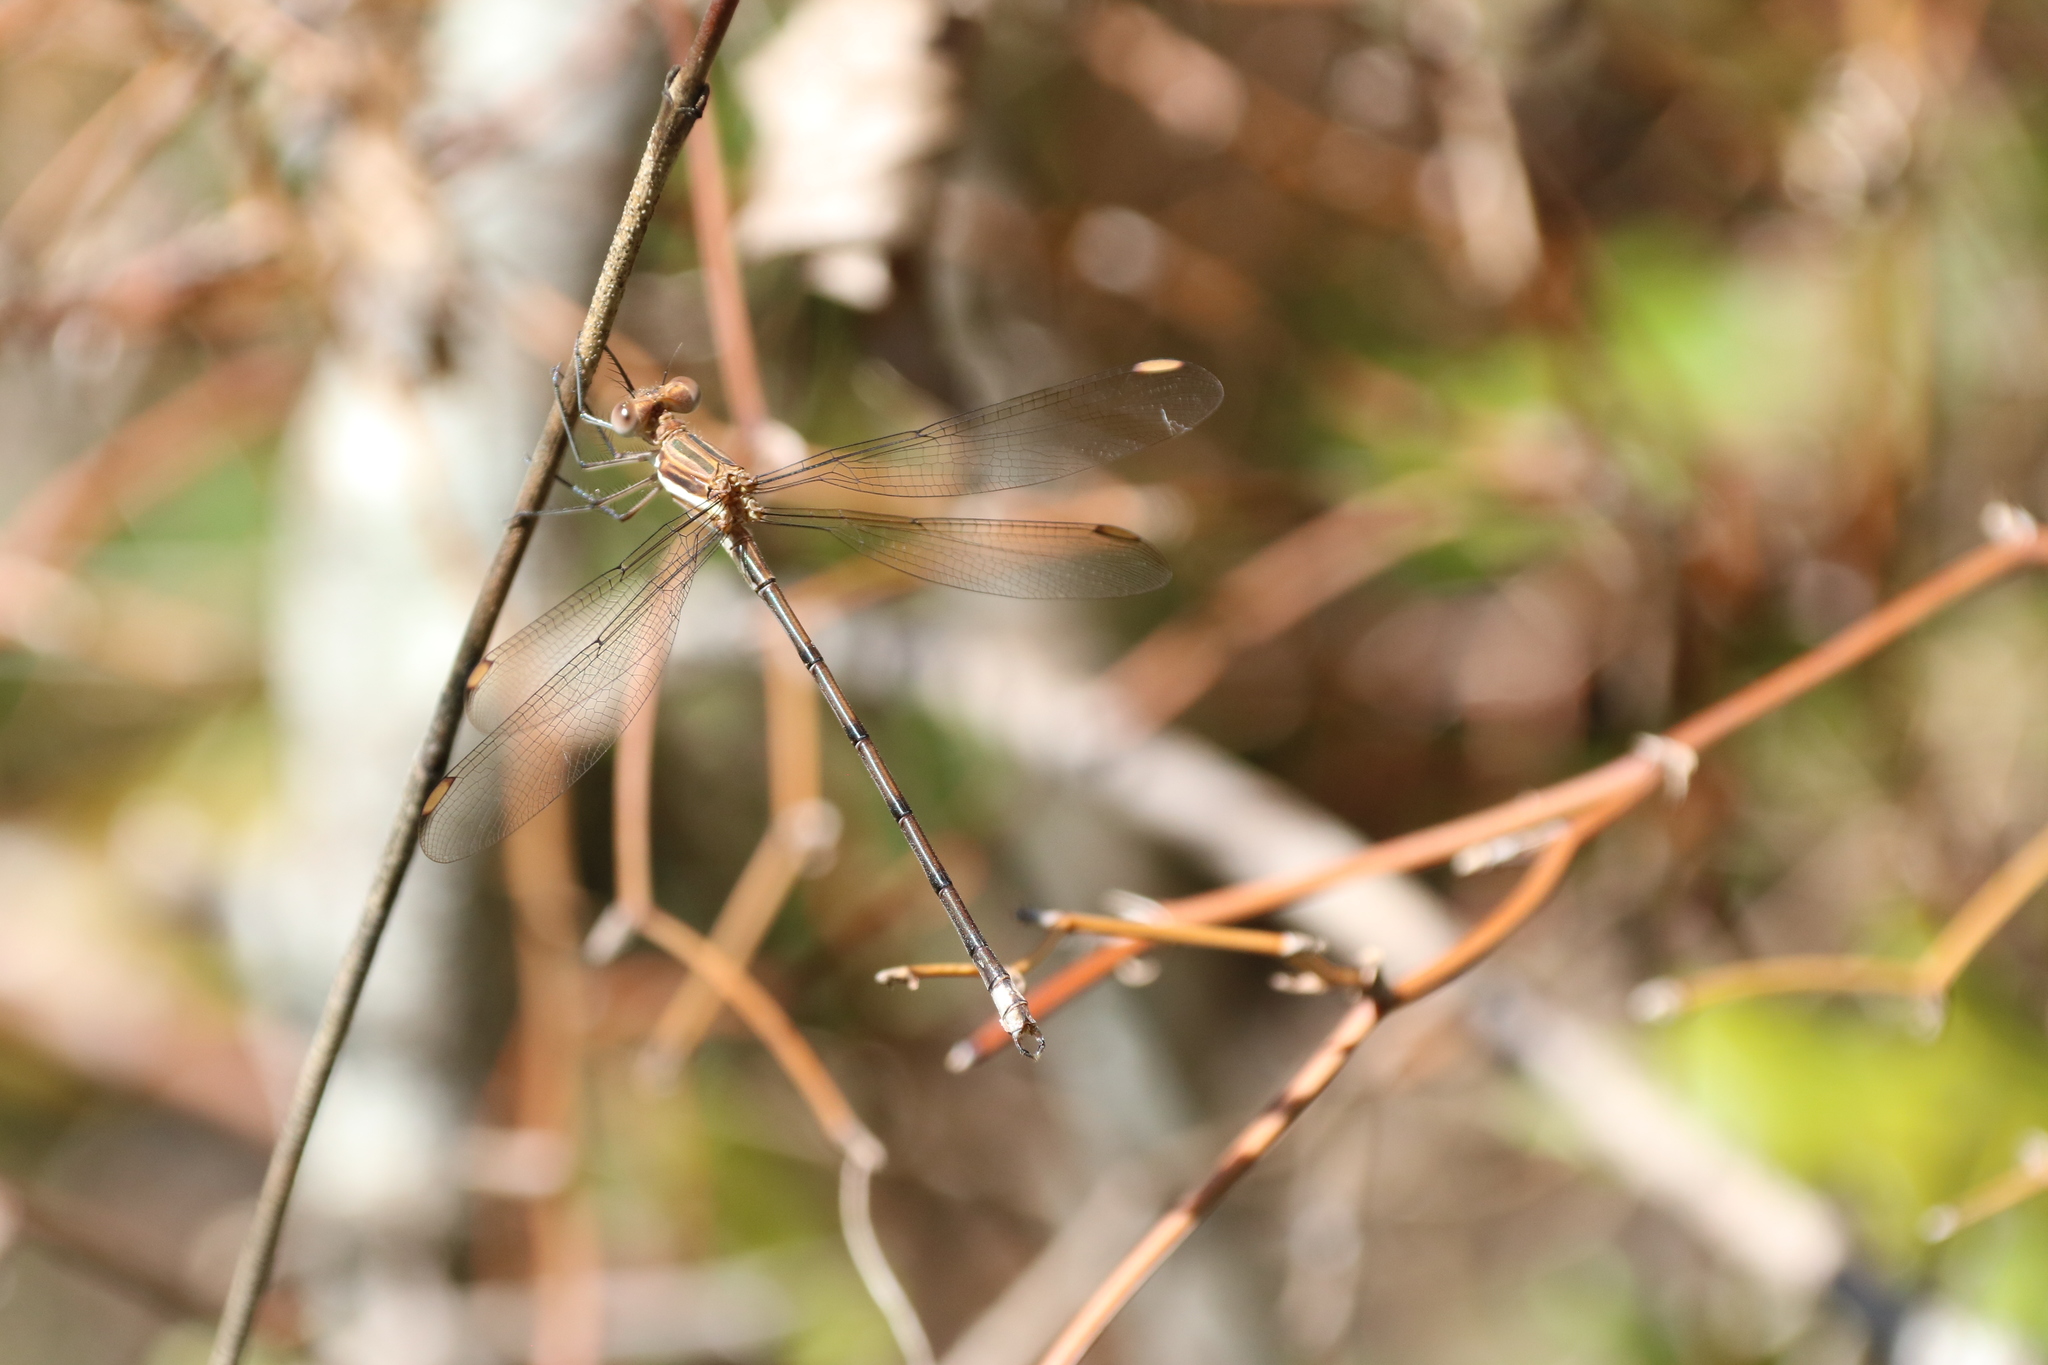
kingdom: Animalia
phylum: Arthropoda
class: Insecta
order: Odonata
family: Lestidae
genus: Archilestes
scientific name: Archilestes grandis
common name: Great spreadwing
